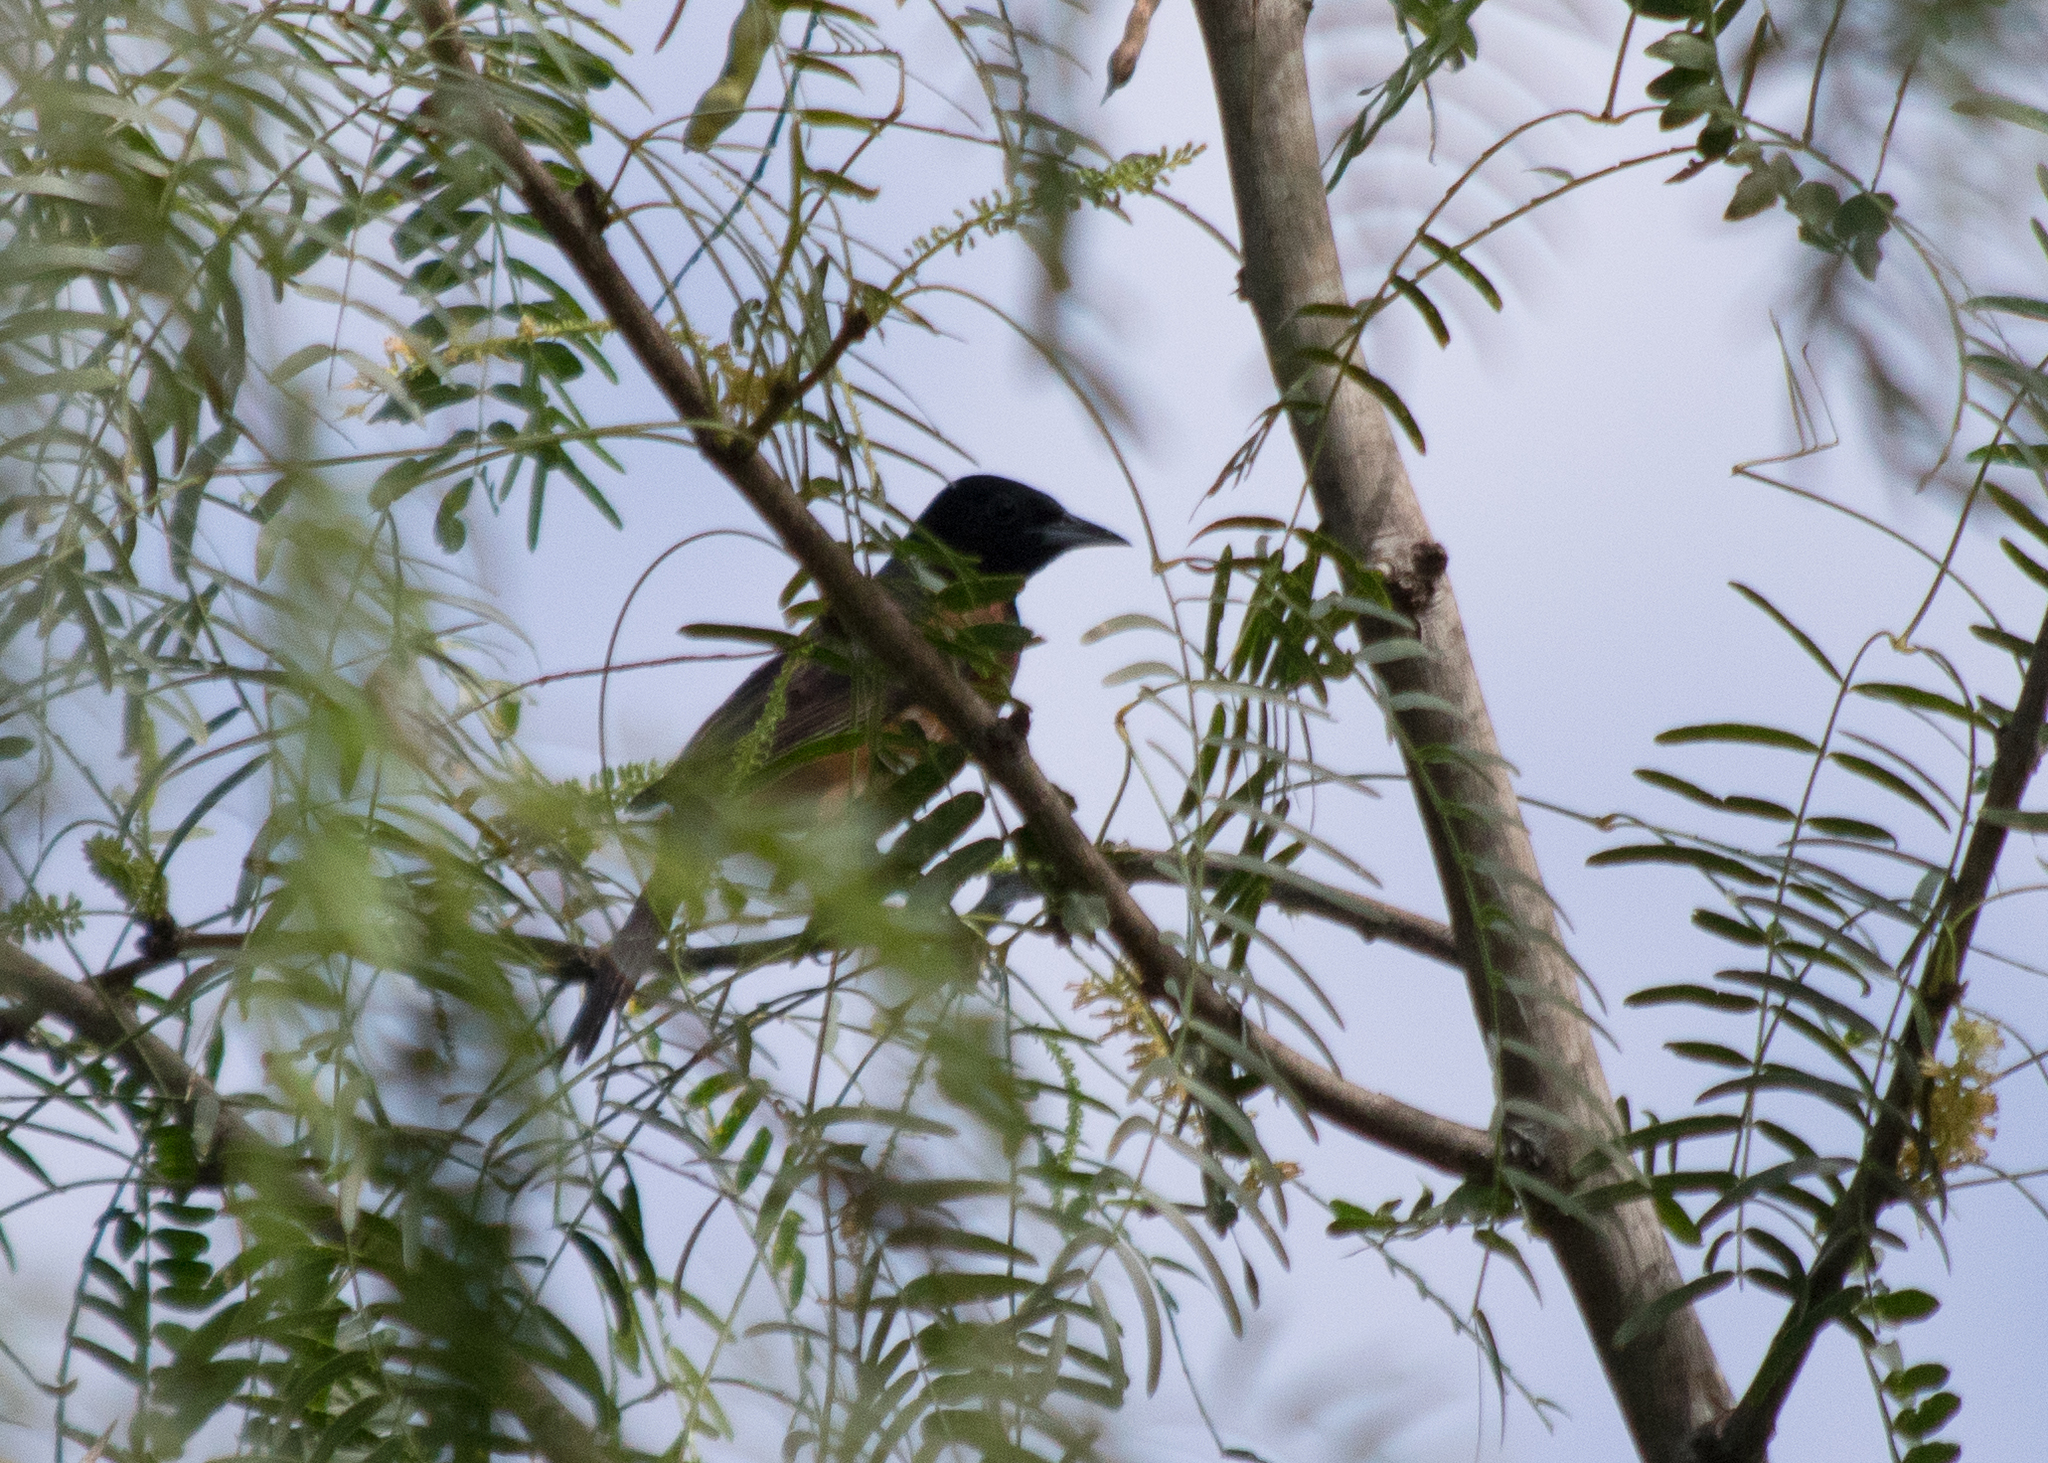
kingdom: Animalia
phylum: Chordata
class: Aves
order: Passeriformes
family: Icteridae
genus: Icterus
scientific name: Icterus spurius
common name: Orchard oriole
